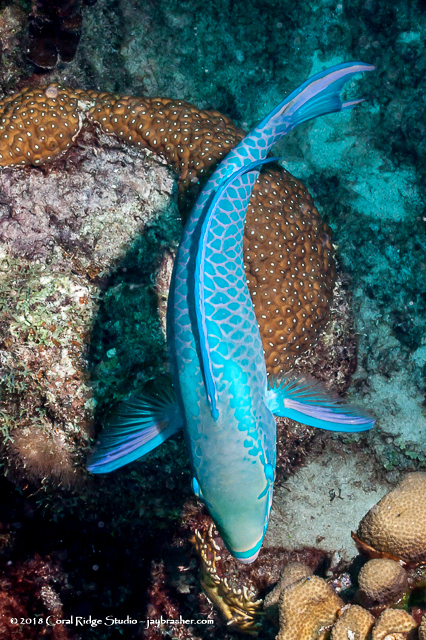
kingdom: Animalia
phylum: Chordata
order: Perciformes
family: Scaridae
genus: Scarus
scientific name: Scarus vetula
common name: Queen parrotfish
